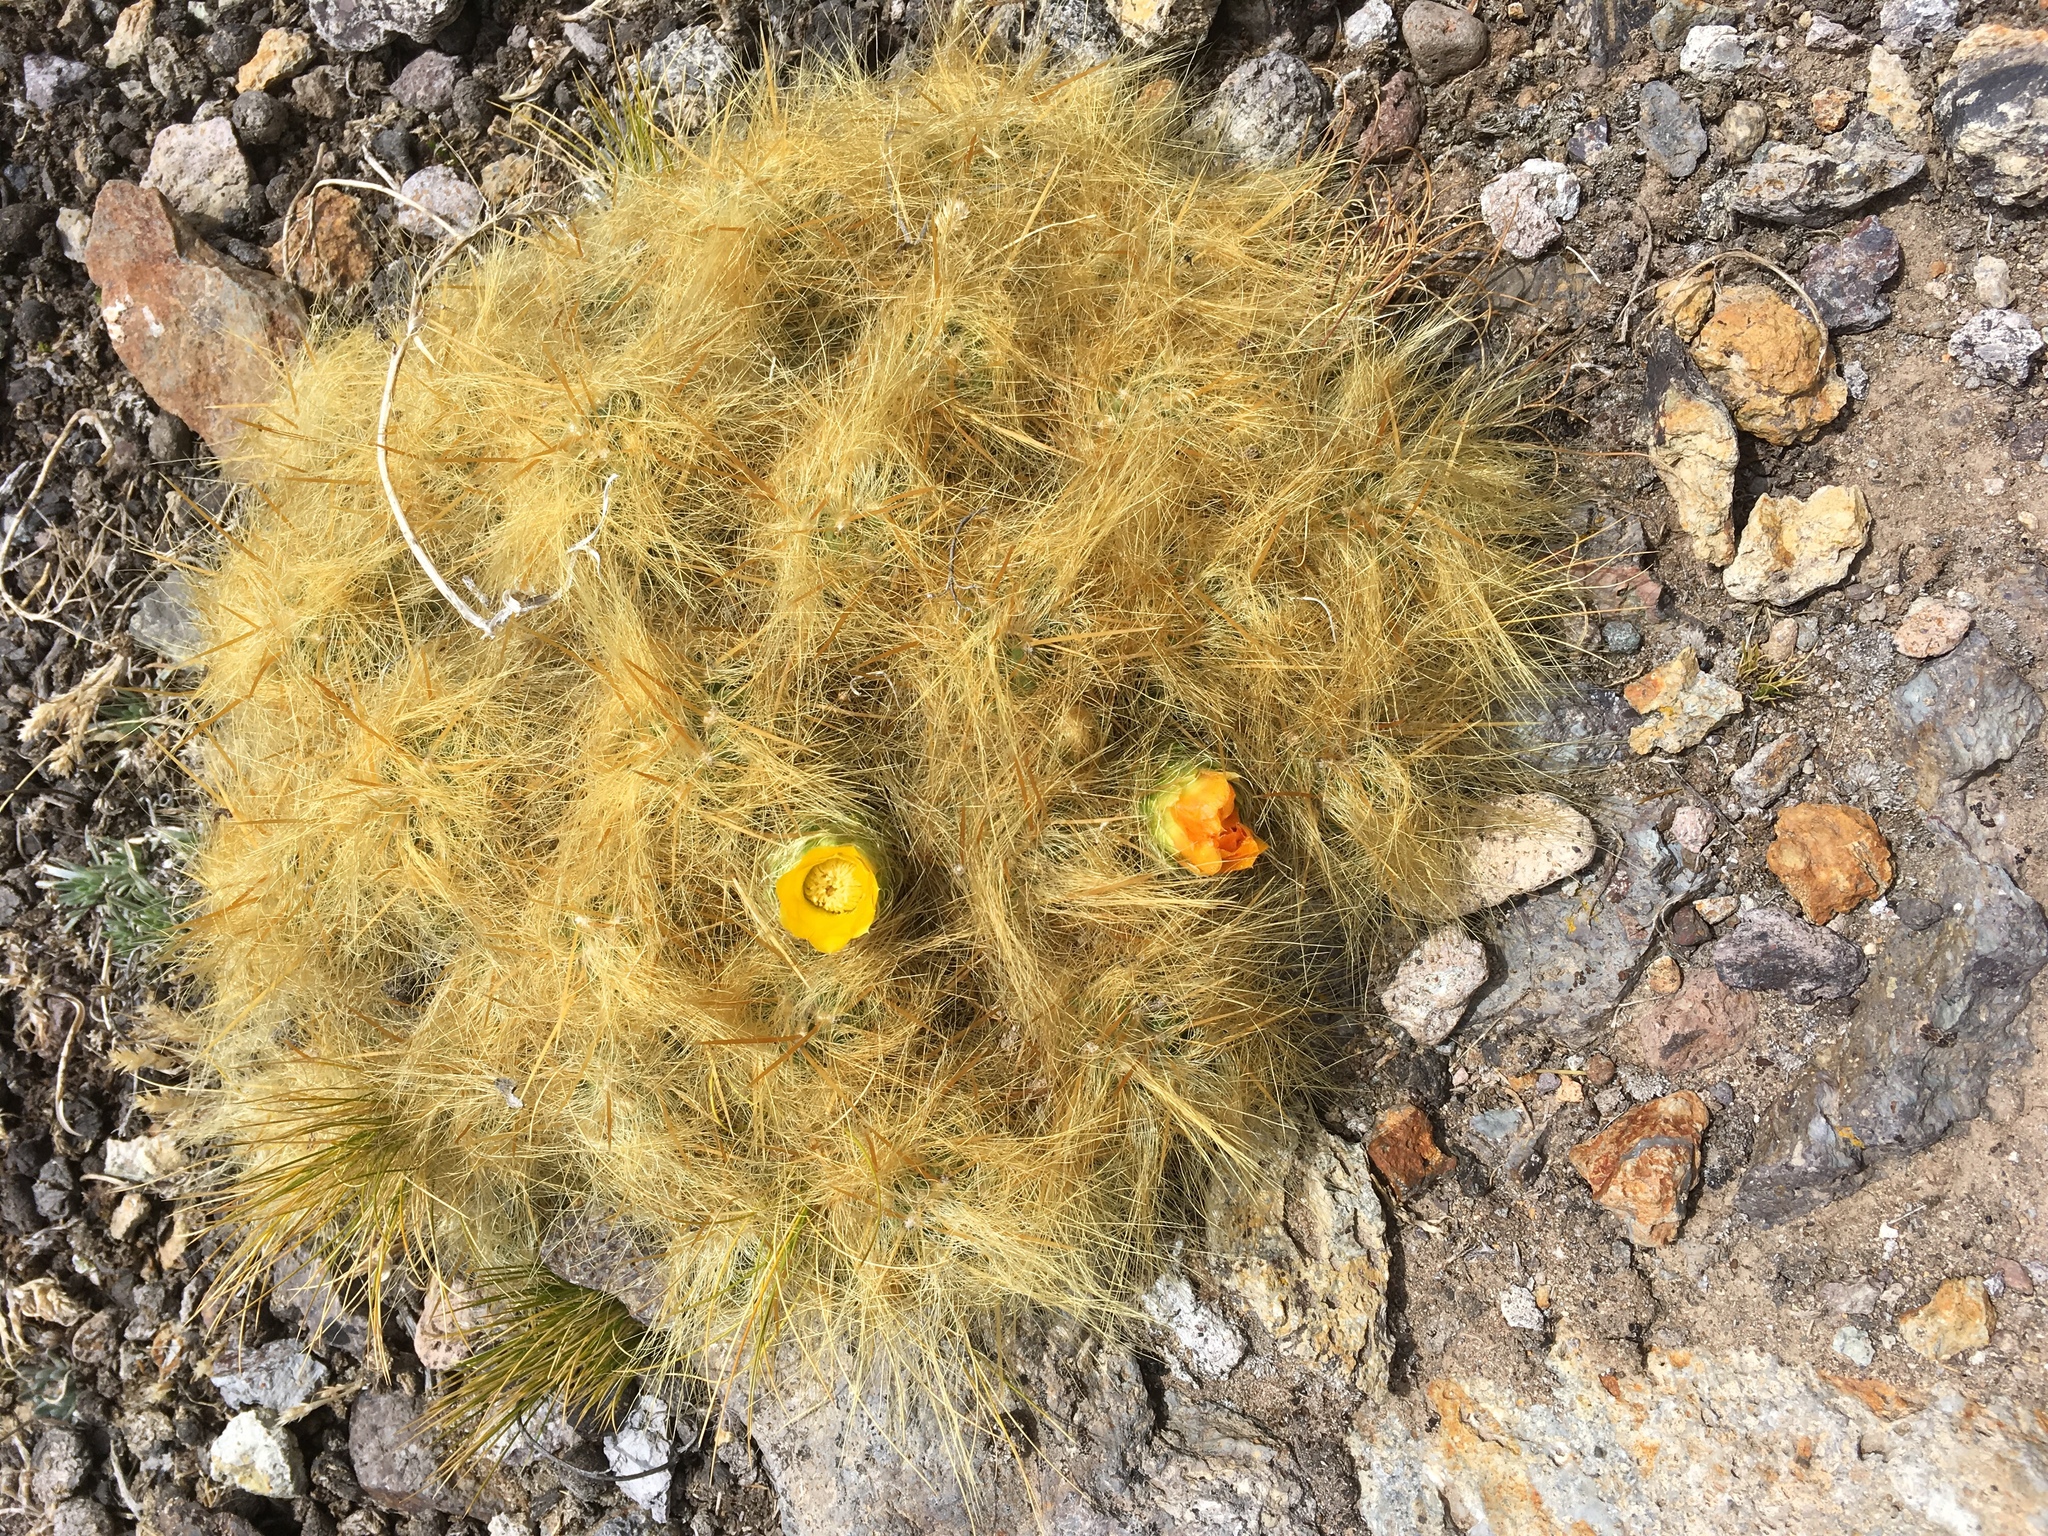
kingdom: Plantae
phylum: Tracheophyta
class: Magnoliopsida
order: Caryophyllales
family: Cactaceae
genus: Austrocylindropuntia
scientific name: Austrocylindropuntia floccosa
